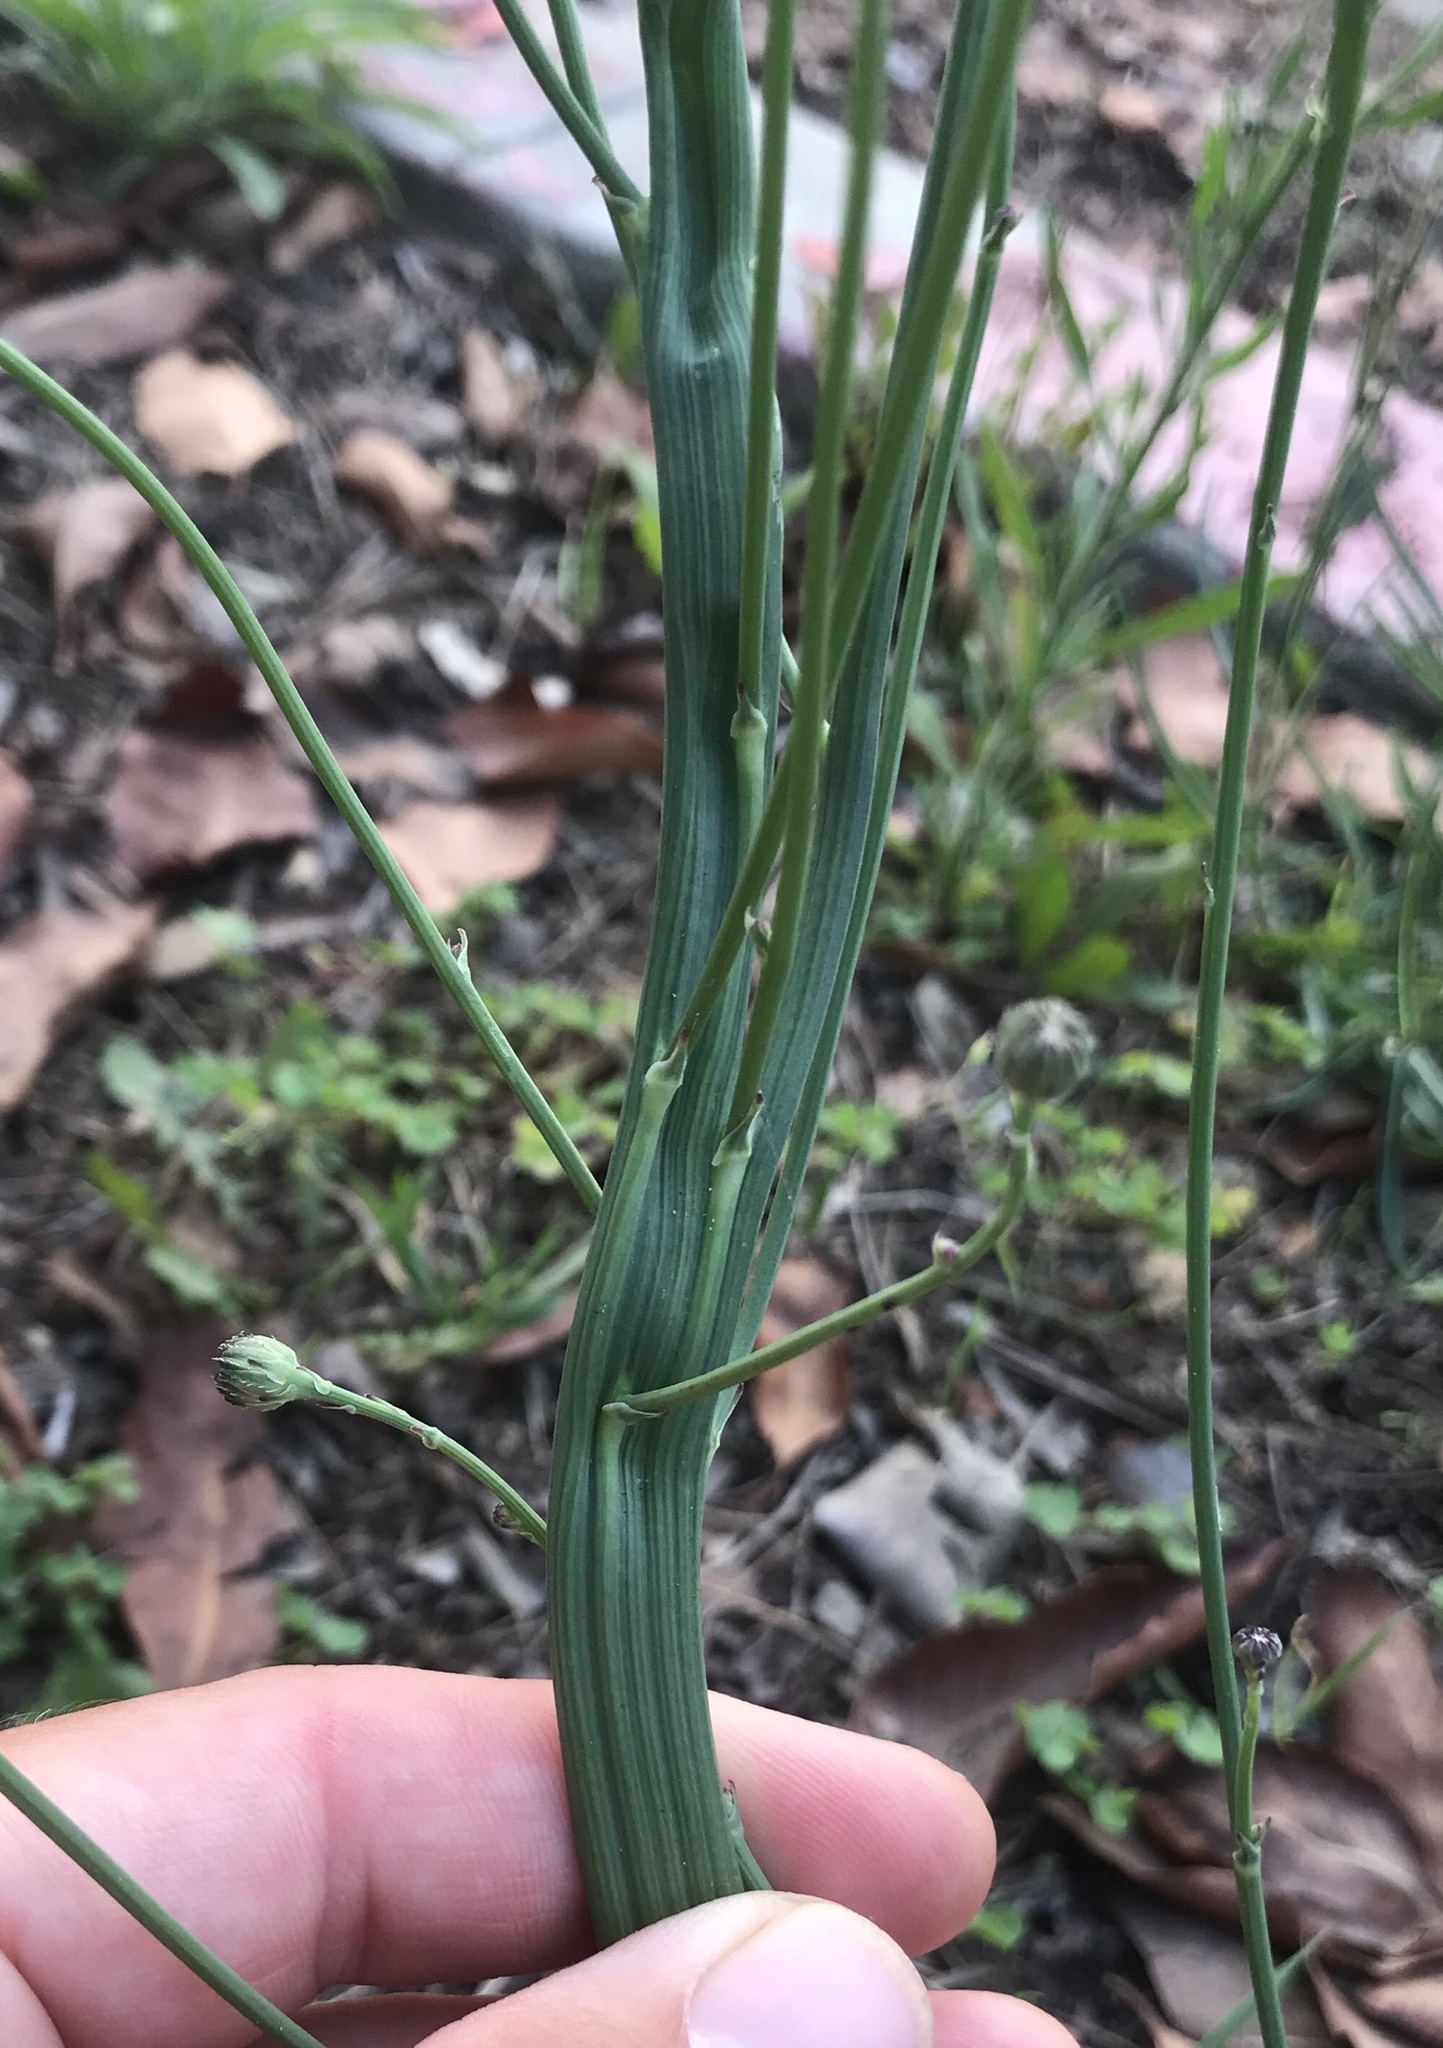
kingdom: Plantae
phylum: Tracheophyta
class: Magnoliopsida
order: Asterales
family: Asteraceae
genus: Hypochaeris
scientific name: Hypochaeris radicata
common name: Flatweed
